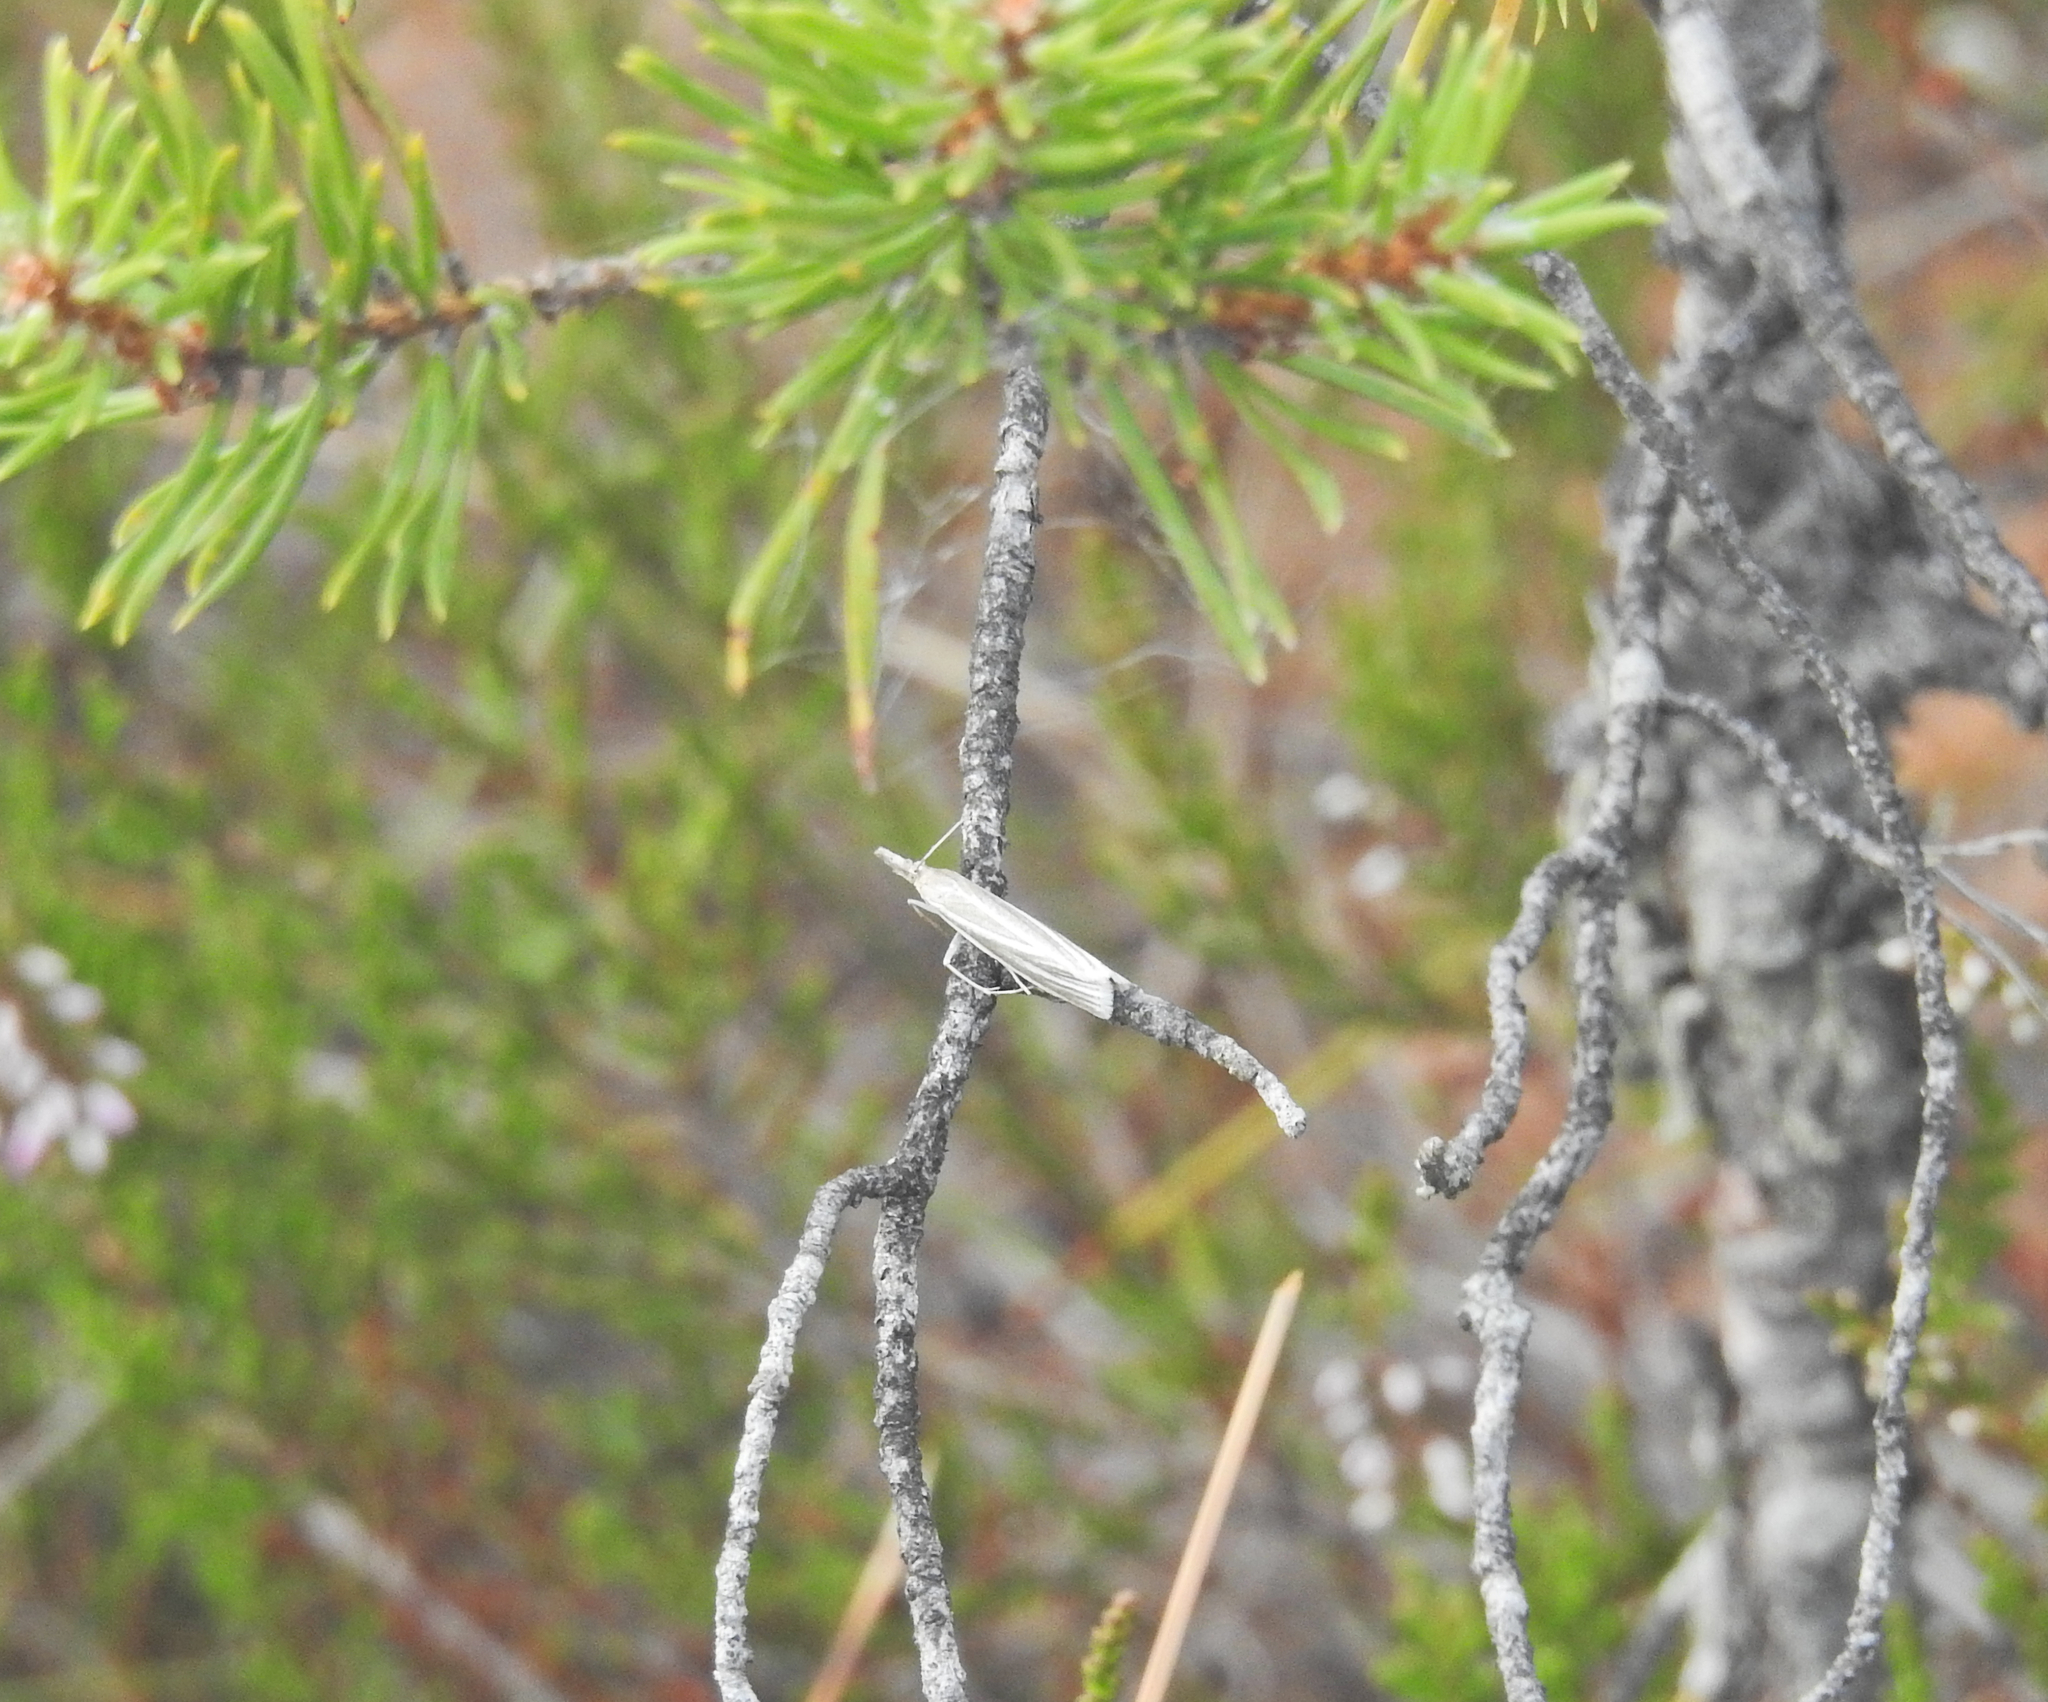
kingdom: Animalia
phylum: Arthropoda
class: Insecta
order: Lepidoptera
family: Crambidae
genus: Crambus
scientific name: Crambus perlellus
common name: Yellow satin veneer
